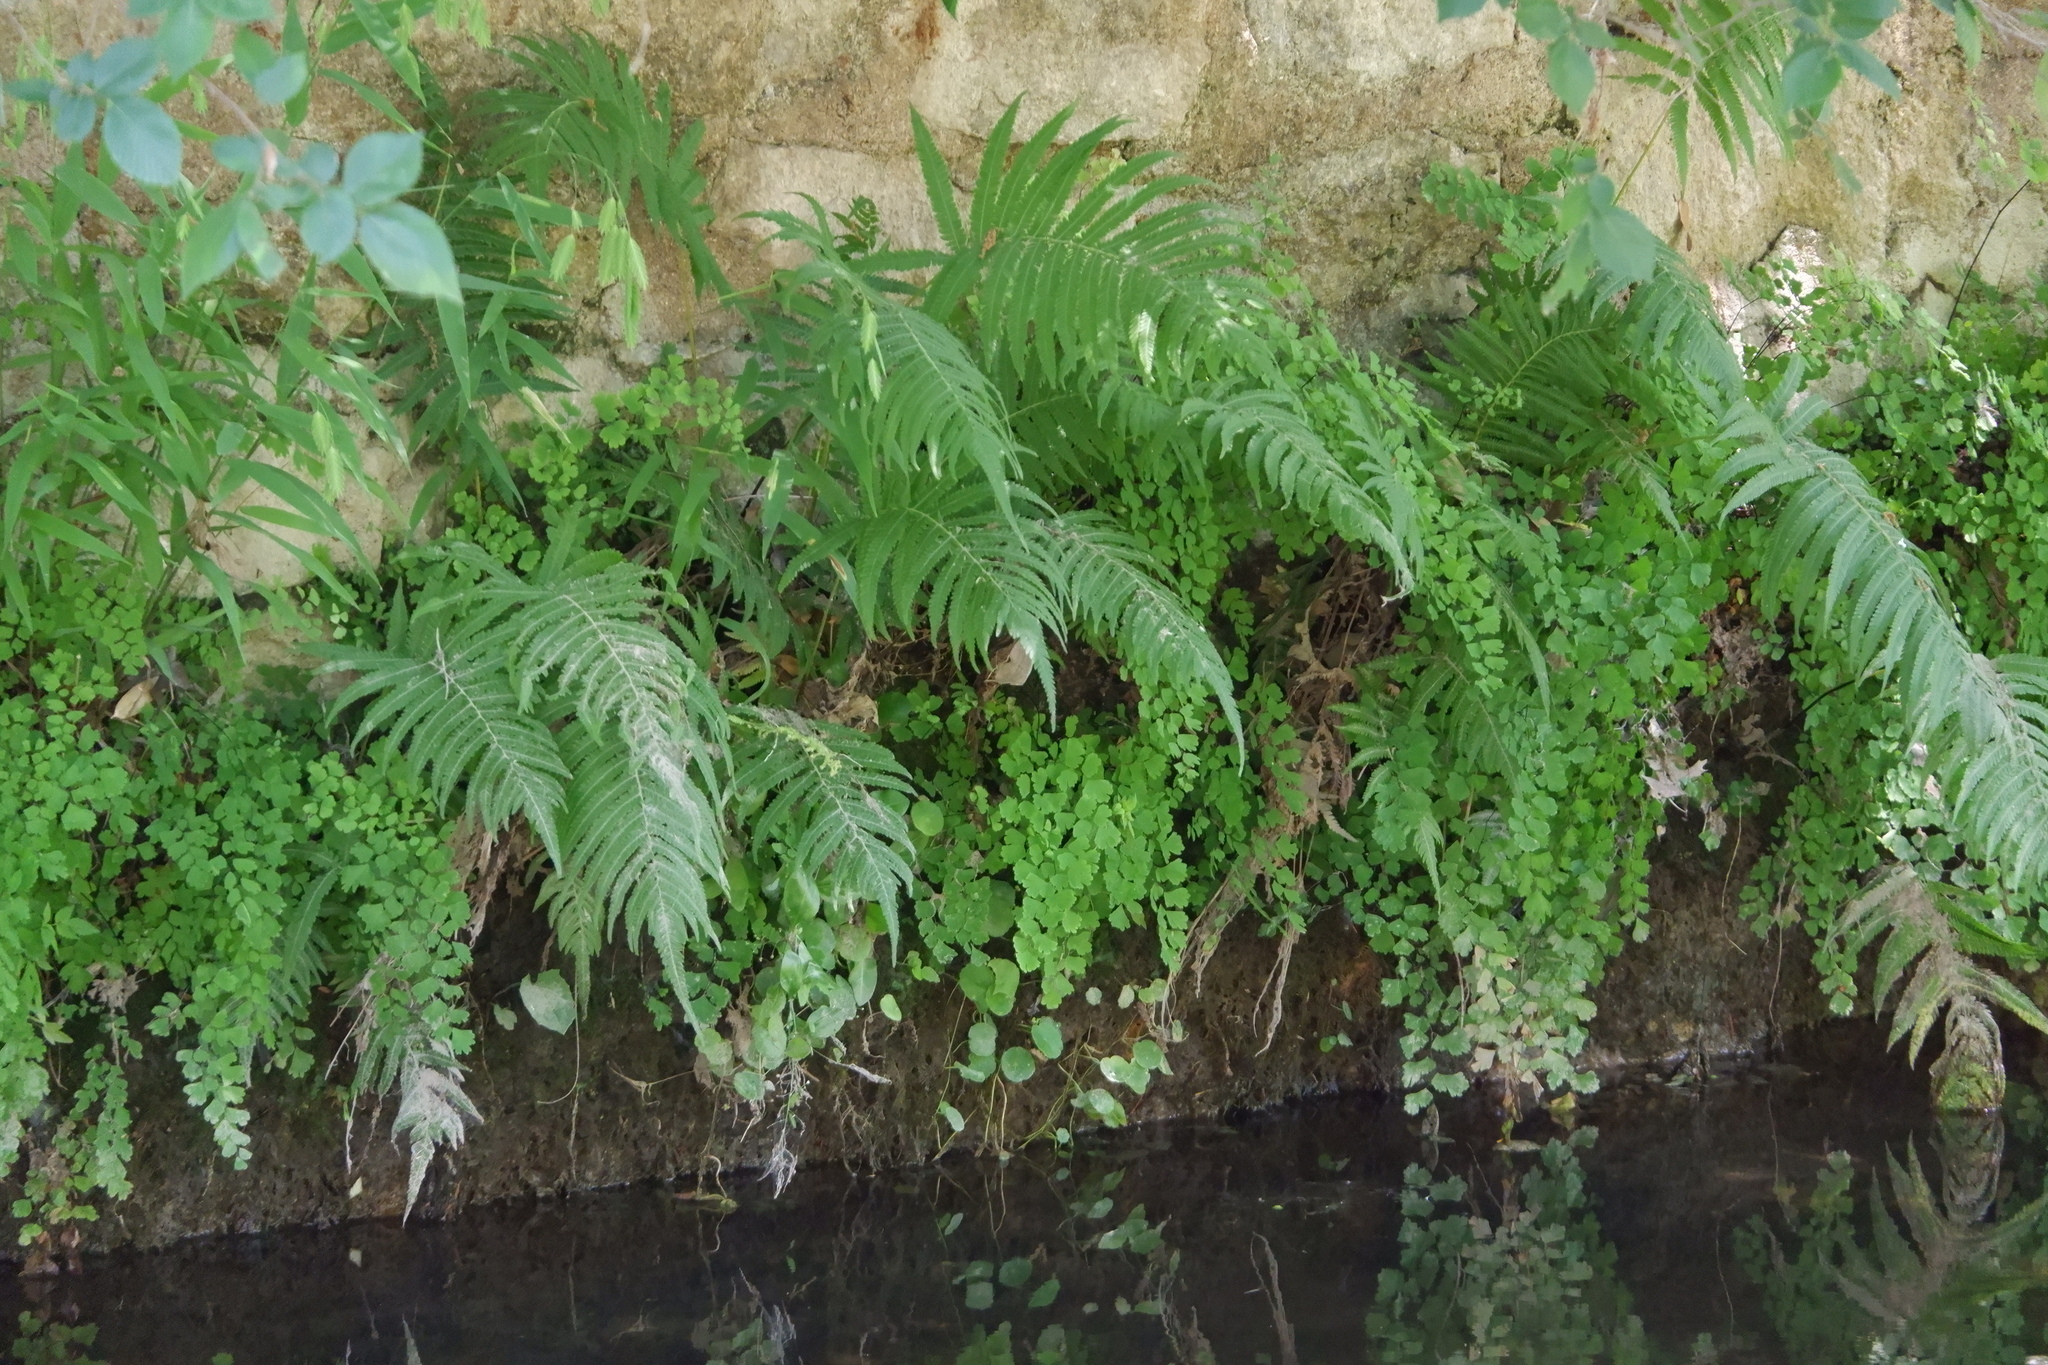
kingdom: Plantae
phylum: Tracheophyta
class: Polypodiopsida
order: Polypodiales
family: Thelypteridaceae
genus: Pelazoneuron
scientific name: Pelazoneuron ovatum
